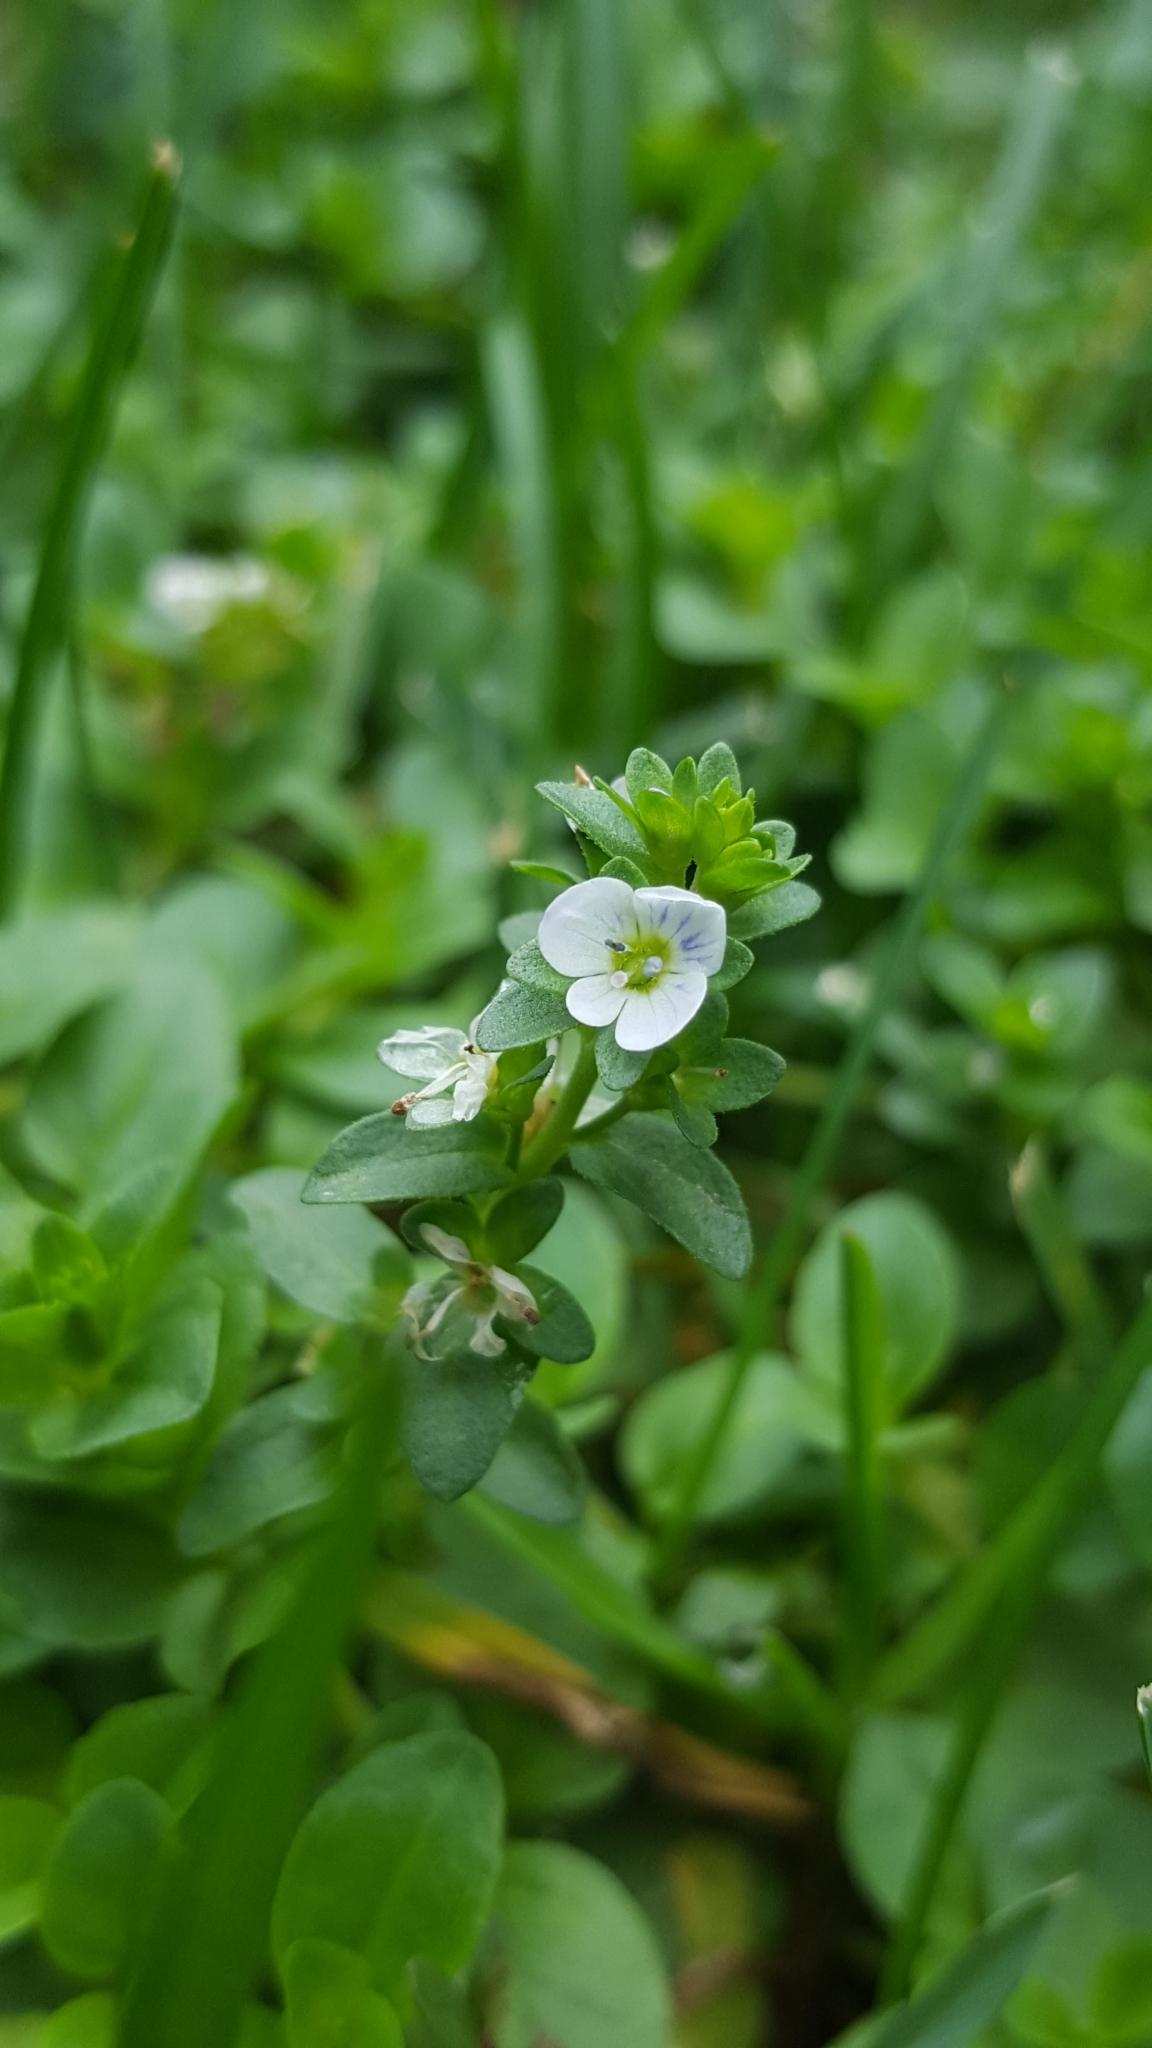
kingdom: Plantae
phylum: Tracheophyta
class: Magnoliopsida
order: Lamiales
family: Plantaginaceae
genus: Veronica
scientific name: Veronica serpyllifolia
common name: Thyme-leaved speedwell
